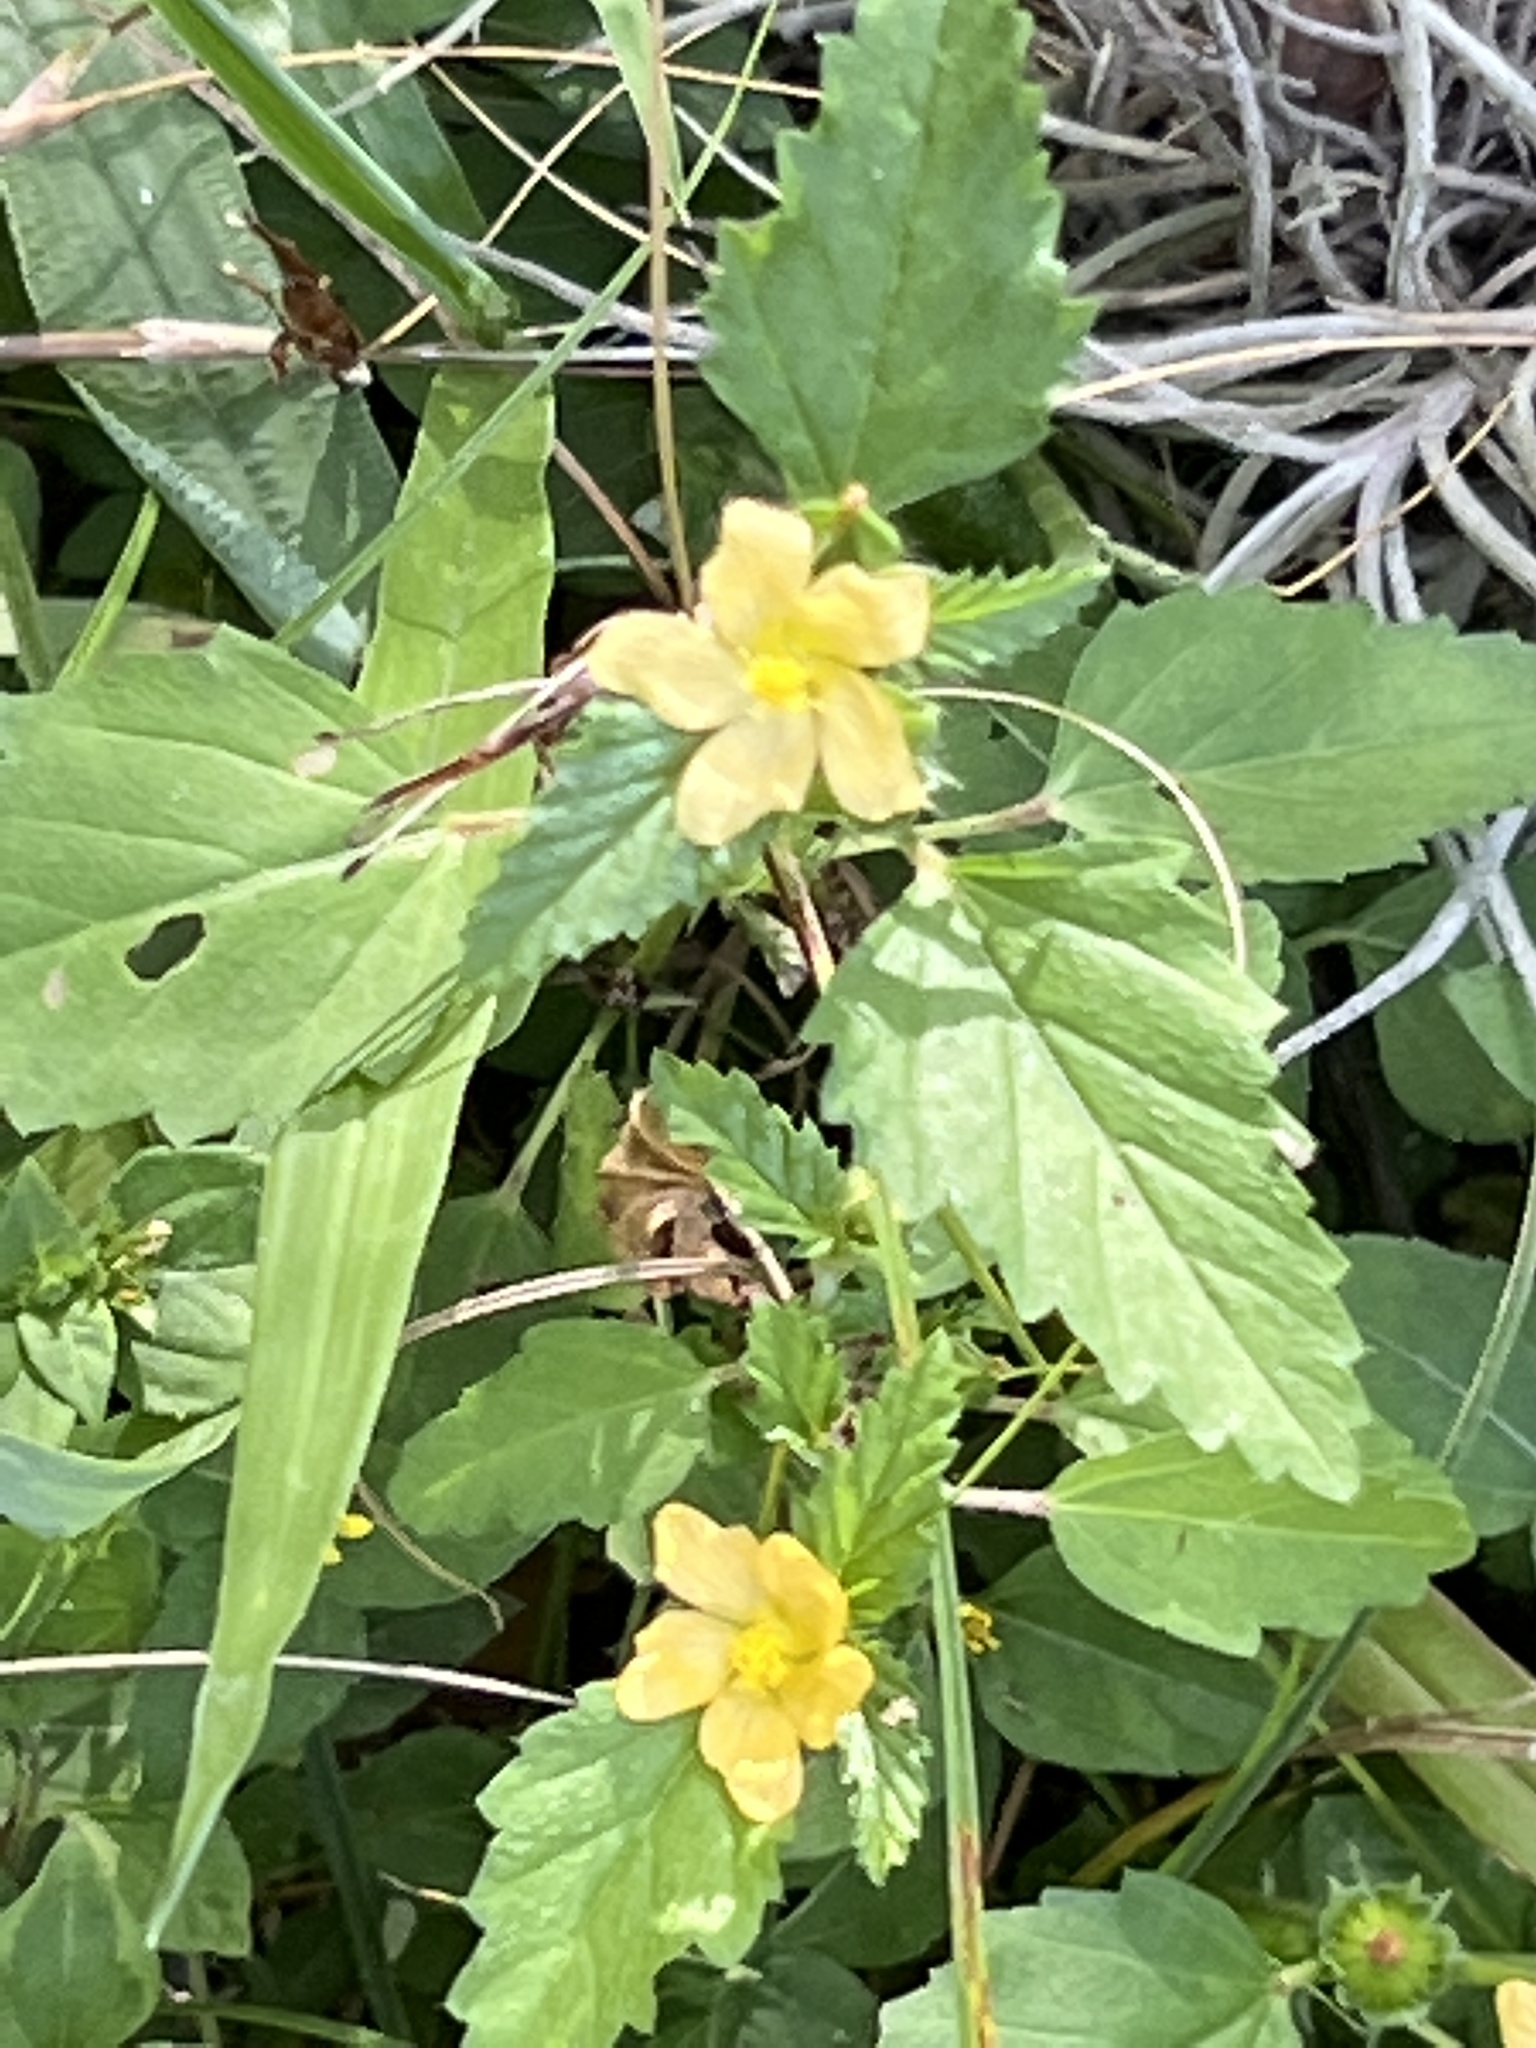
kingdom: Plantae
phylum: Tracheophyta
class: Magnoliopsida
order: Malvales
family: Malvaceae
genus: Malvastrum
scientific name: Malvastrum coromandelianum
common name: Threelobe false mallow
